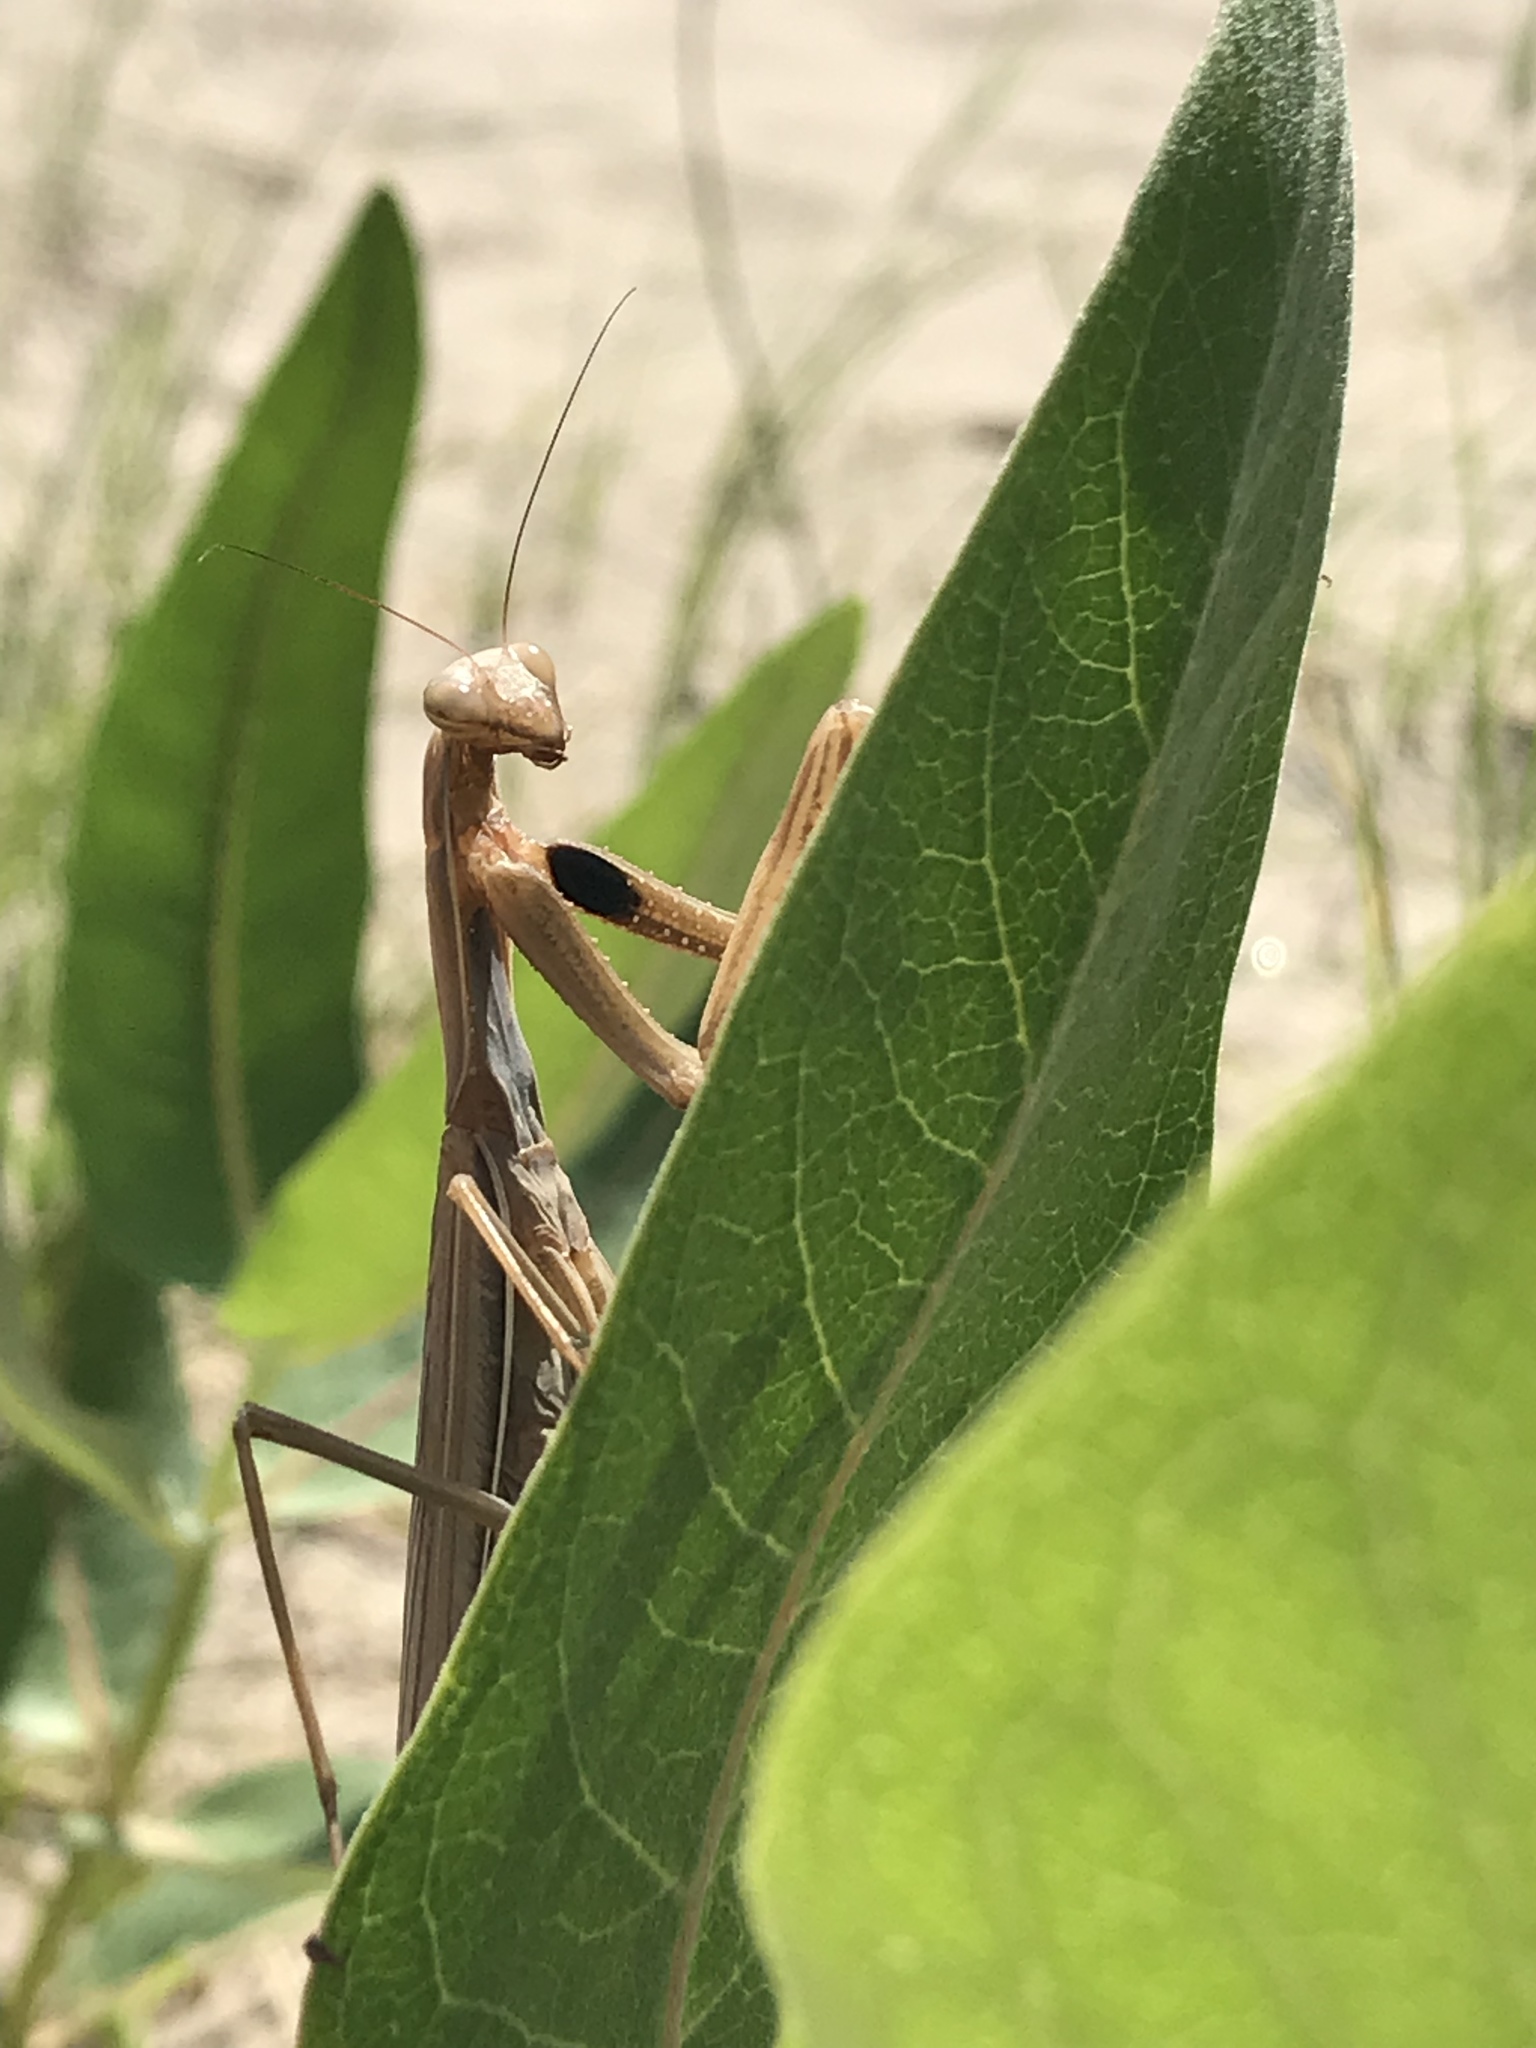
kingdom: Animalia
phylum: Arthropoda
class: Insecta
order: Mantodea
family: Mantidae
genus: Mantis
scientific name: Mantis religiosa
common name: Praying mantis
